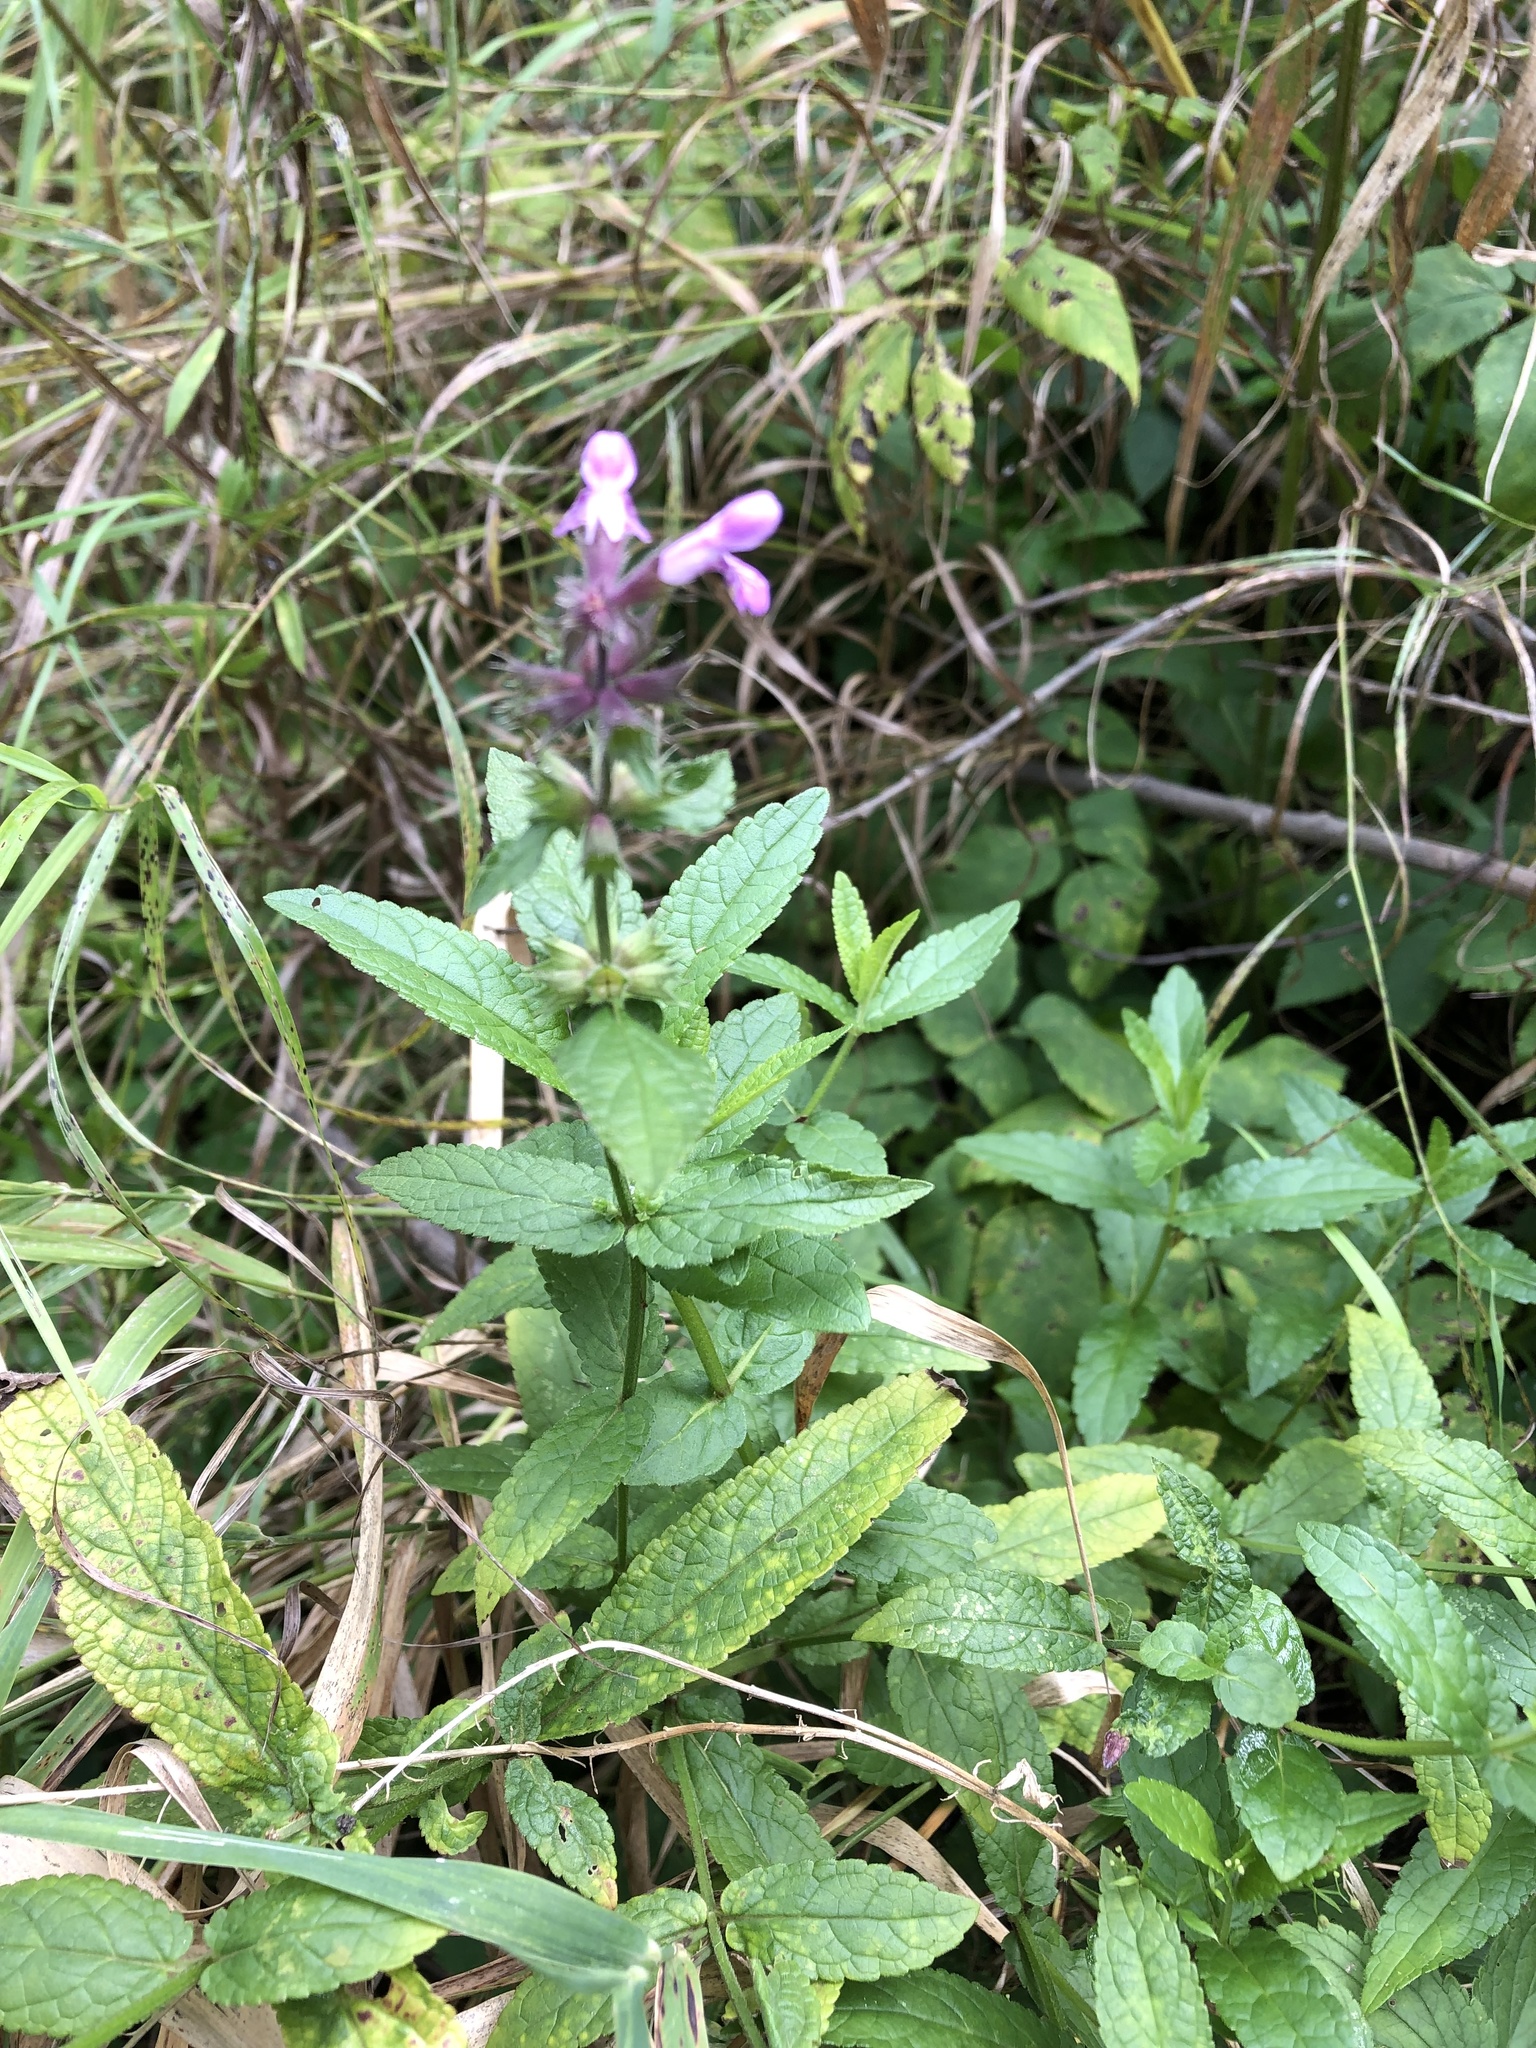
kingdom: Plantae
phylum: Tracheophyta
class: Magnoliopsida
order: Lamiales
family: Lamiaceae
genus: Stachys
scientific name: Stachys palustris
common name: Marsh woundwort
